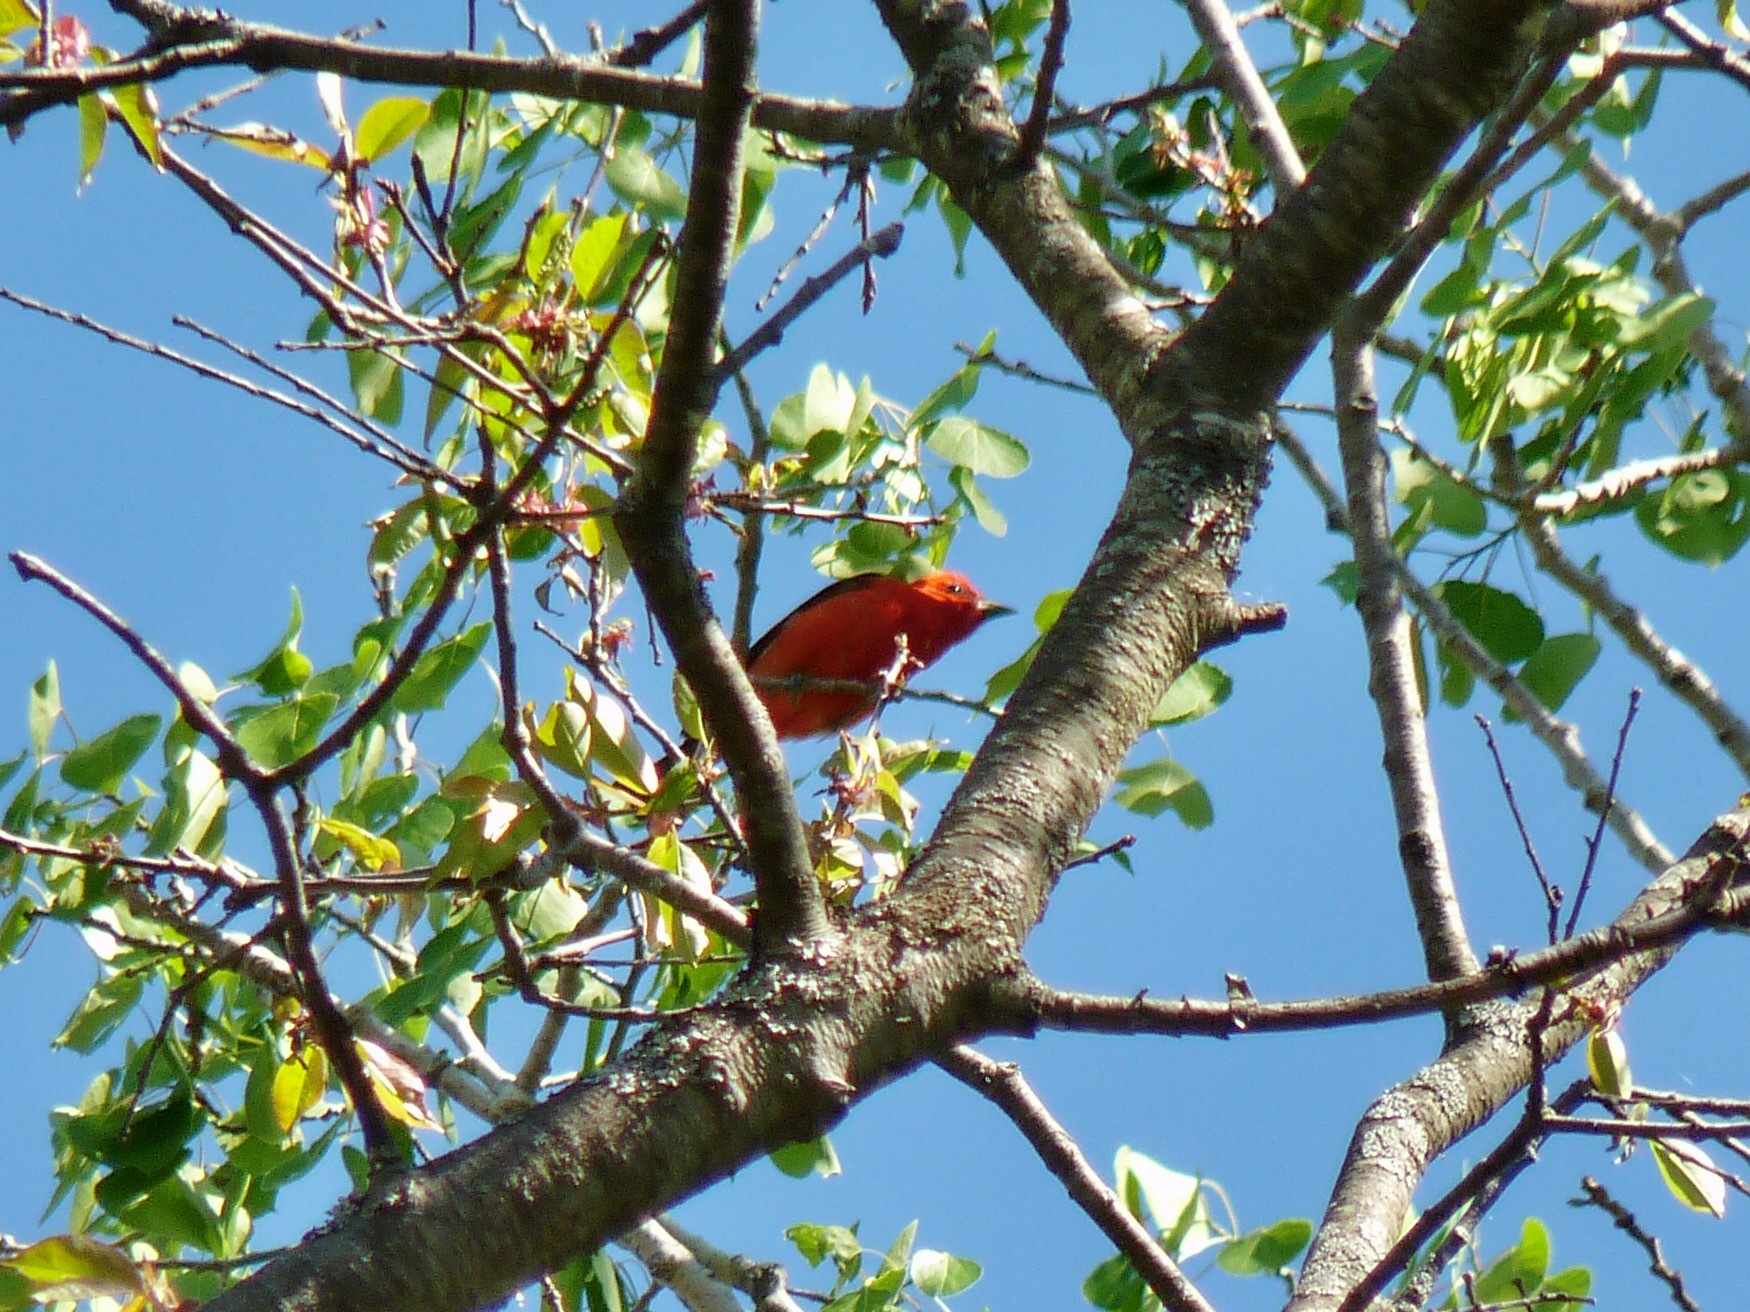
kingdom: Animalia
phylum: Chordata
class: Aves
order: Passeriformes
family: Cardinalidae
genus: Piranga
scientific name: Piranga olivacea
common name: Scarlet tanager
